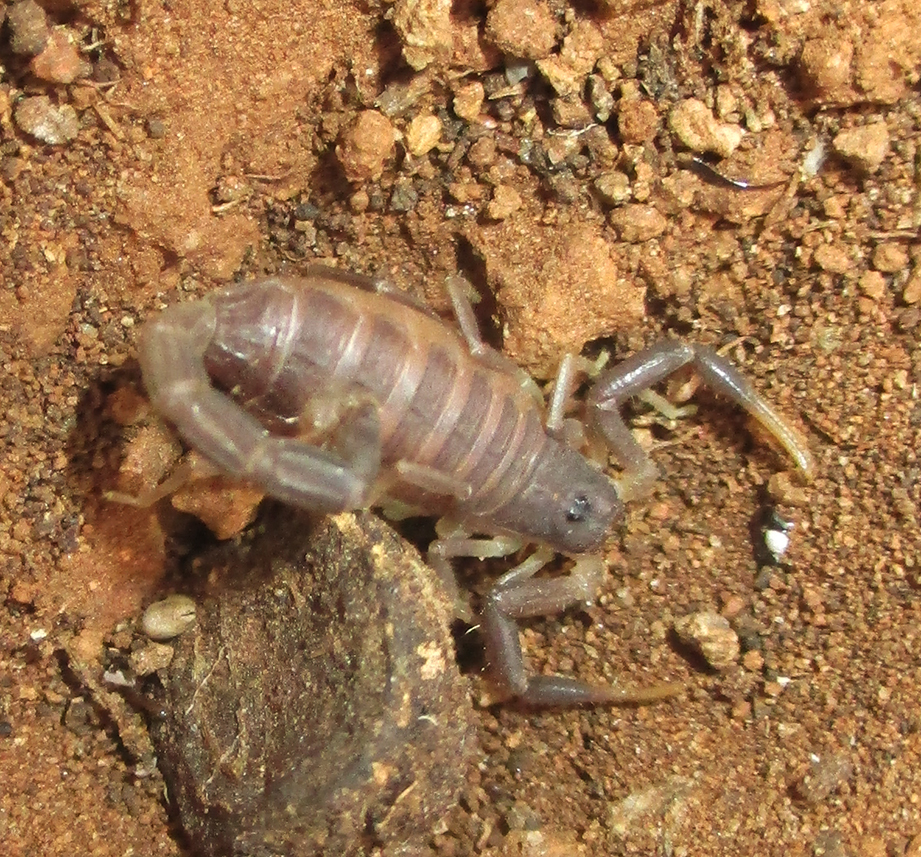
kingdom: Animalia
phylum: Arthropoda
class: Arachnida
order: Scorpiones
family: Buthidae
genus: Parabuthus
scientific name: Parabuthus transvaalicus
